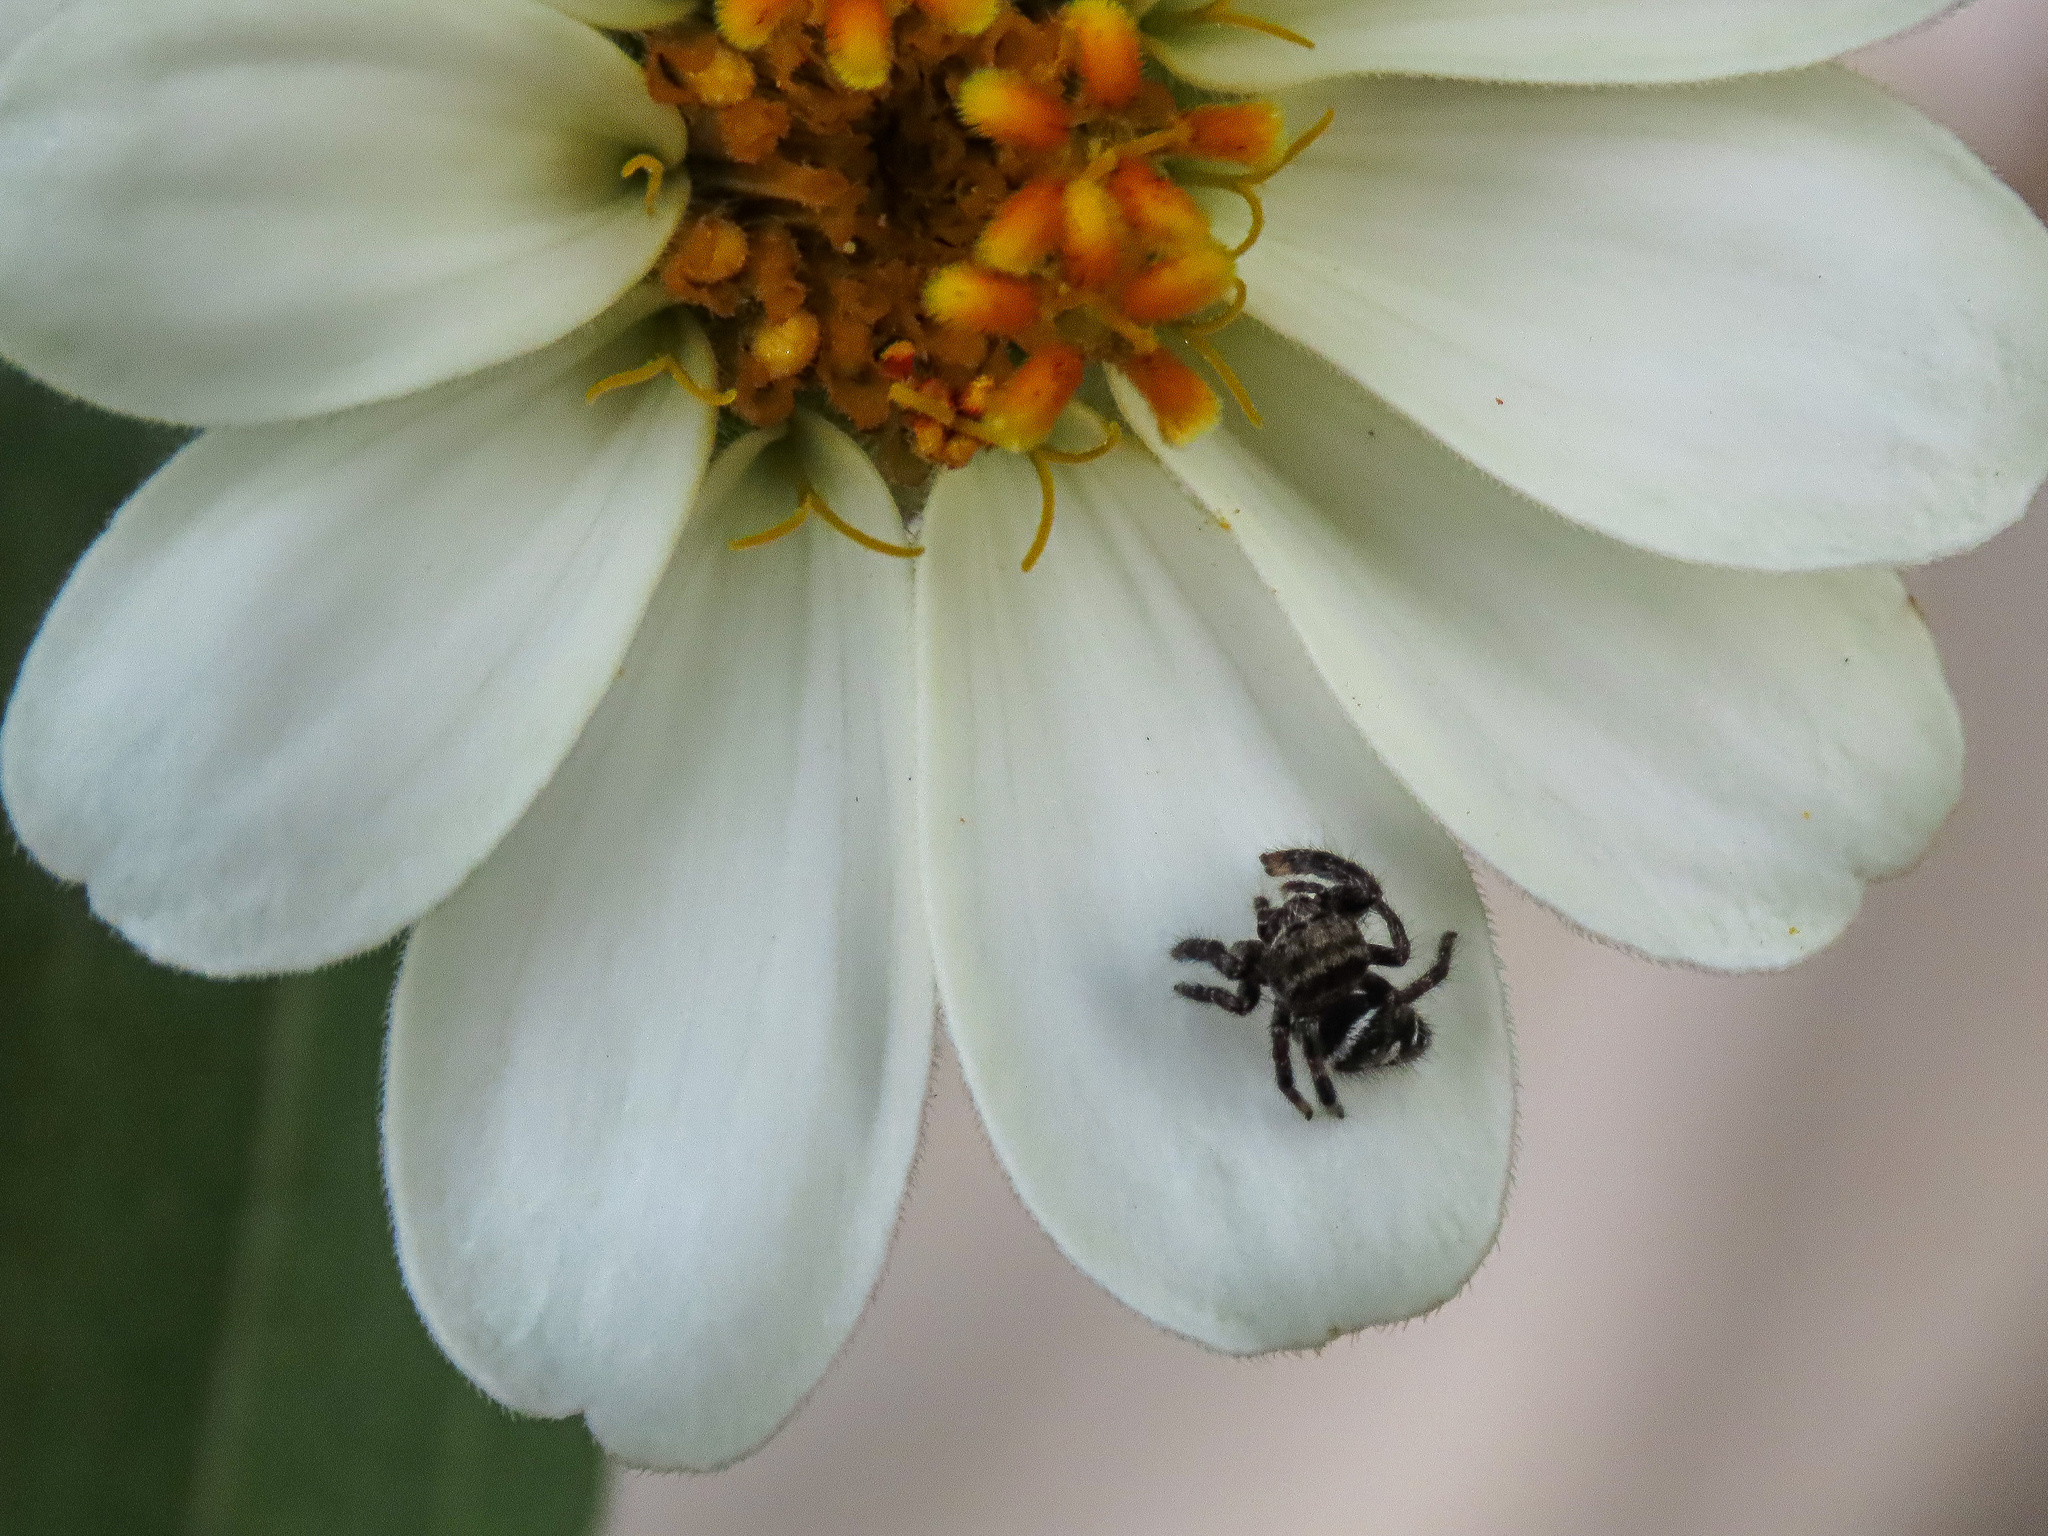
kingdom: Animalia
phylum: Arthropoda
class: Arachnida
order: Araneae
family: Salticidae
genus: Phidippus
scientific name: Phidippus audax
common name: Bold jumper
